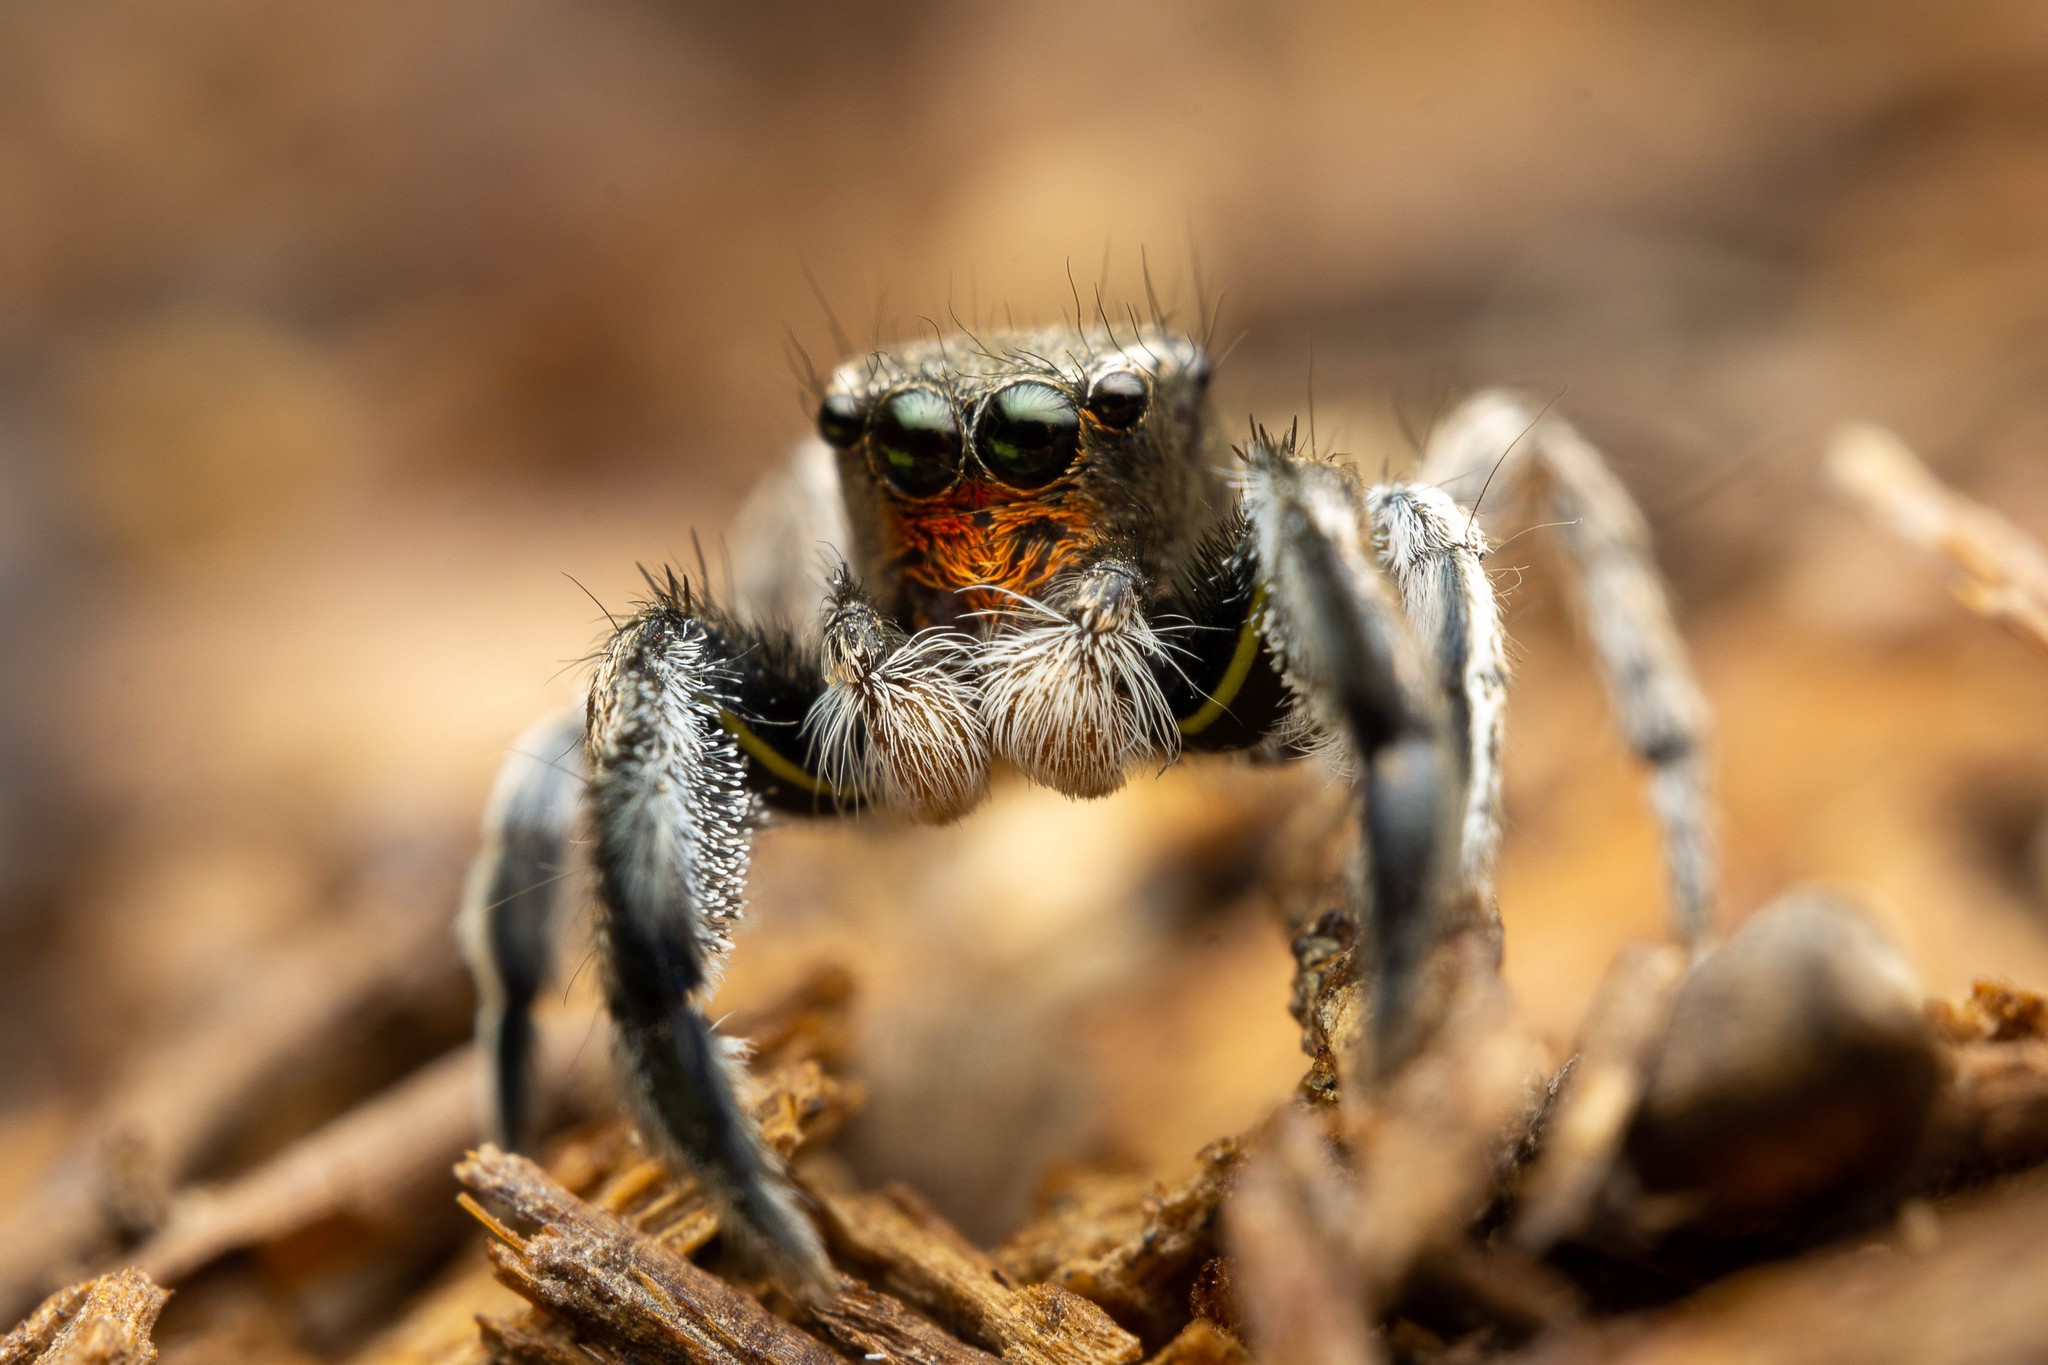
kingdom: Animalia
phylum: Arthropoda
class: Arachnida
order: Araneae
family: Salticidae
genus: Habronattus
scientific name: Habronattus hirsutus
